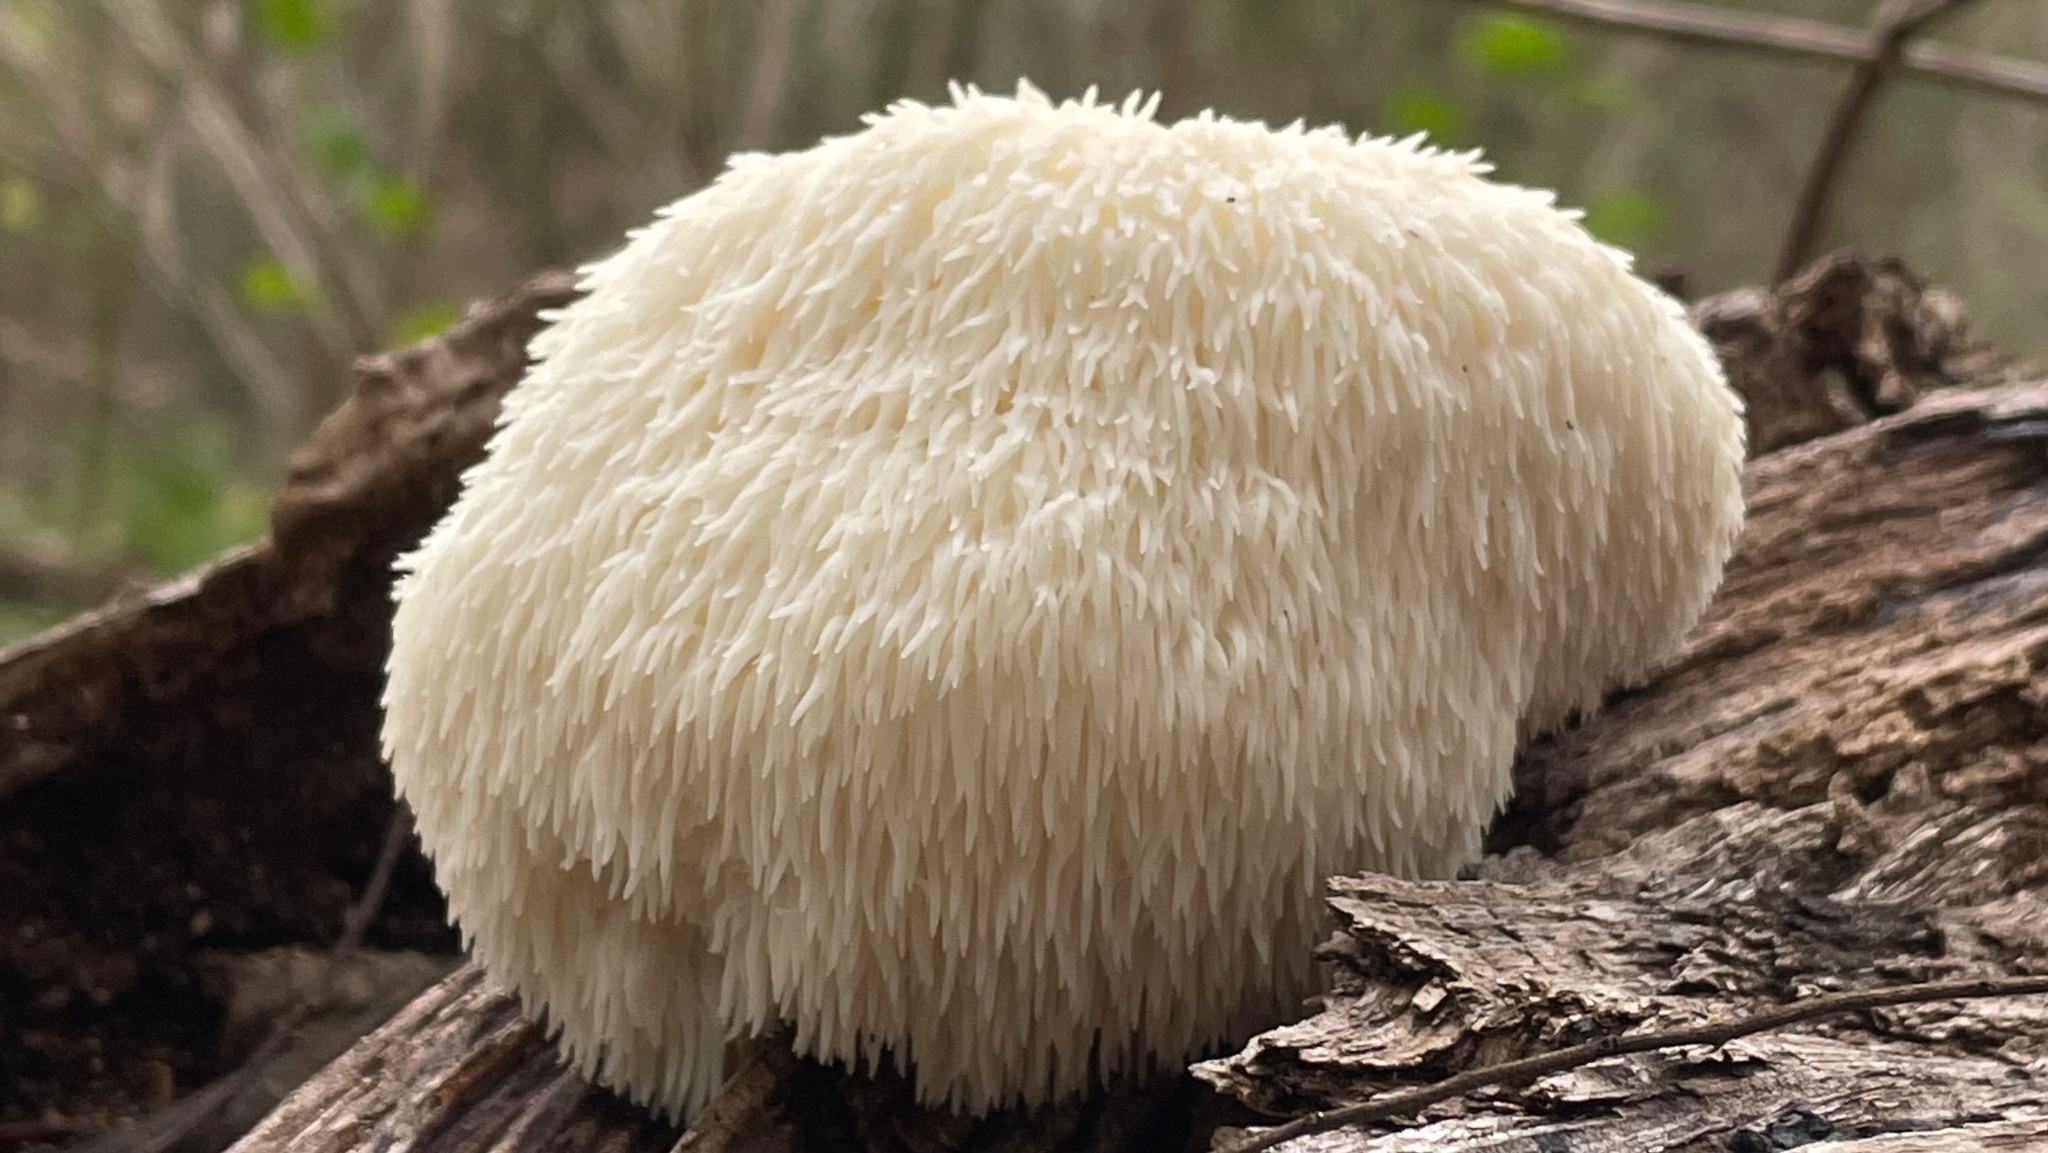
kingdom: Fungi
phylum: Basidiomycota
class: Agaricomycetes
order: Russulales
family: Hericiaceae
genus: Hericium
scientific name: Hericium erinaceus
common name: Bearded tooth
